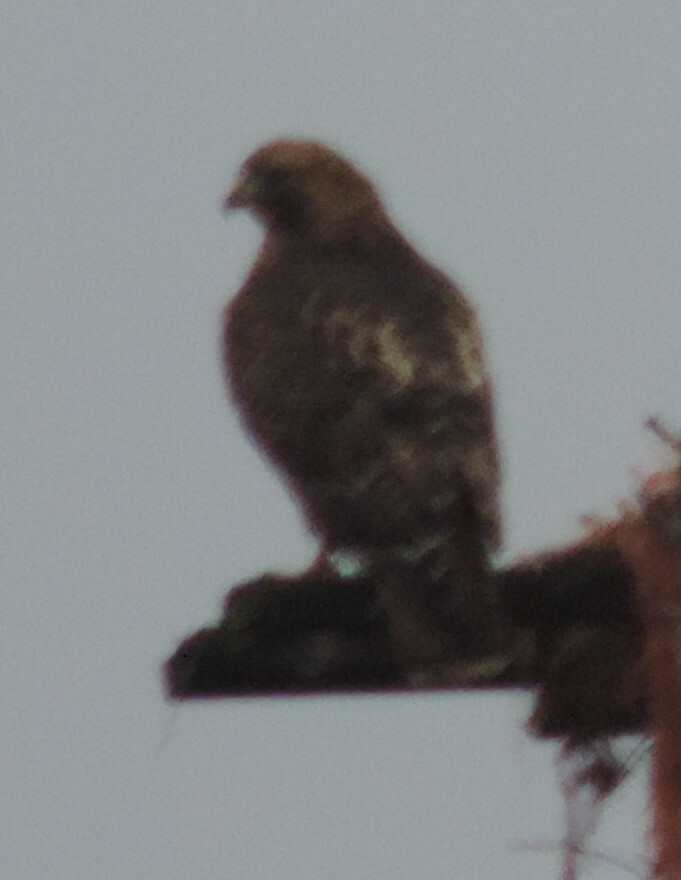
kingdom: Animalia
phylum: Chordata
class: Aves
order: Accipitriformes
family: Accipitridae
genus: Buteo
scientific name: Buteo jamaicensis
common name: Red-tailed hawk
